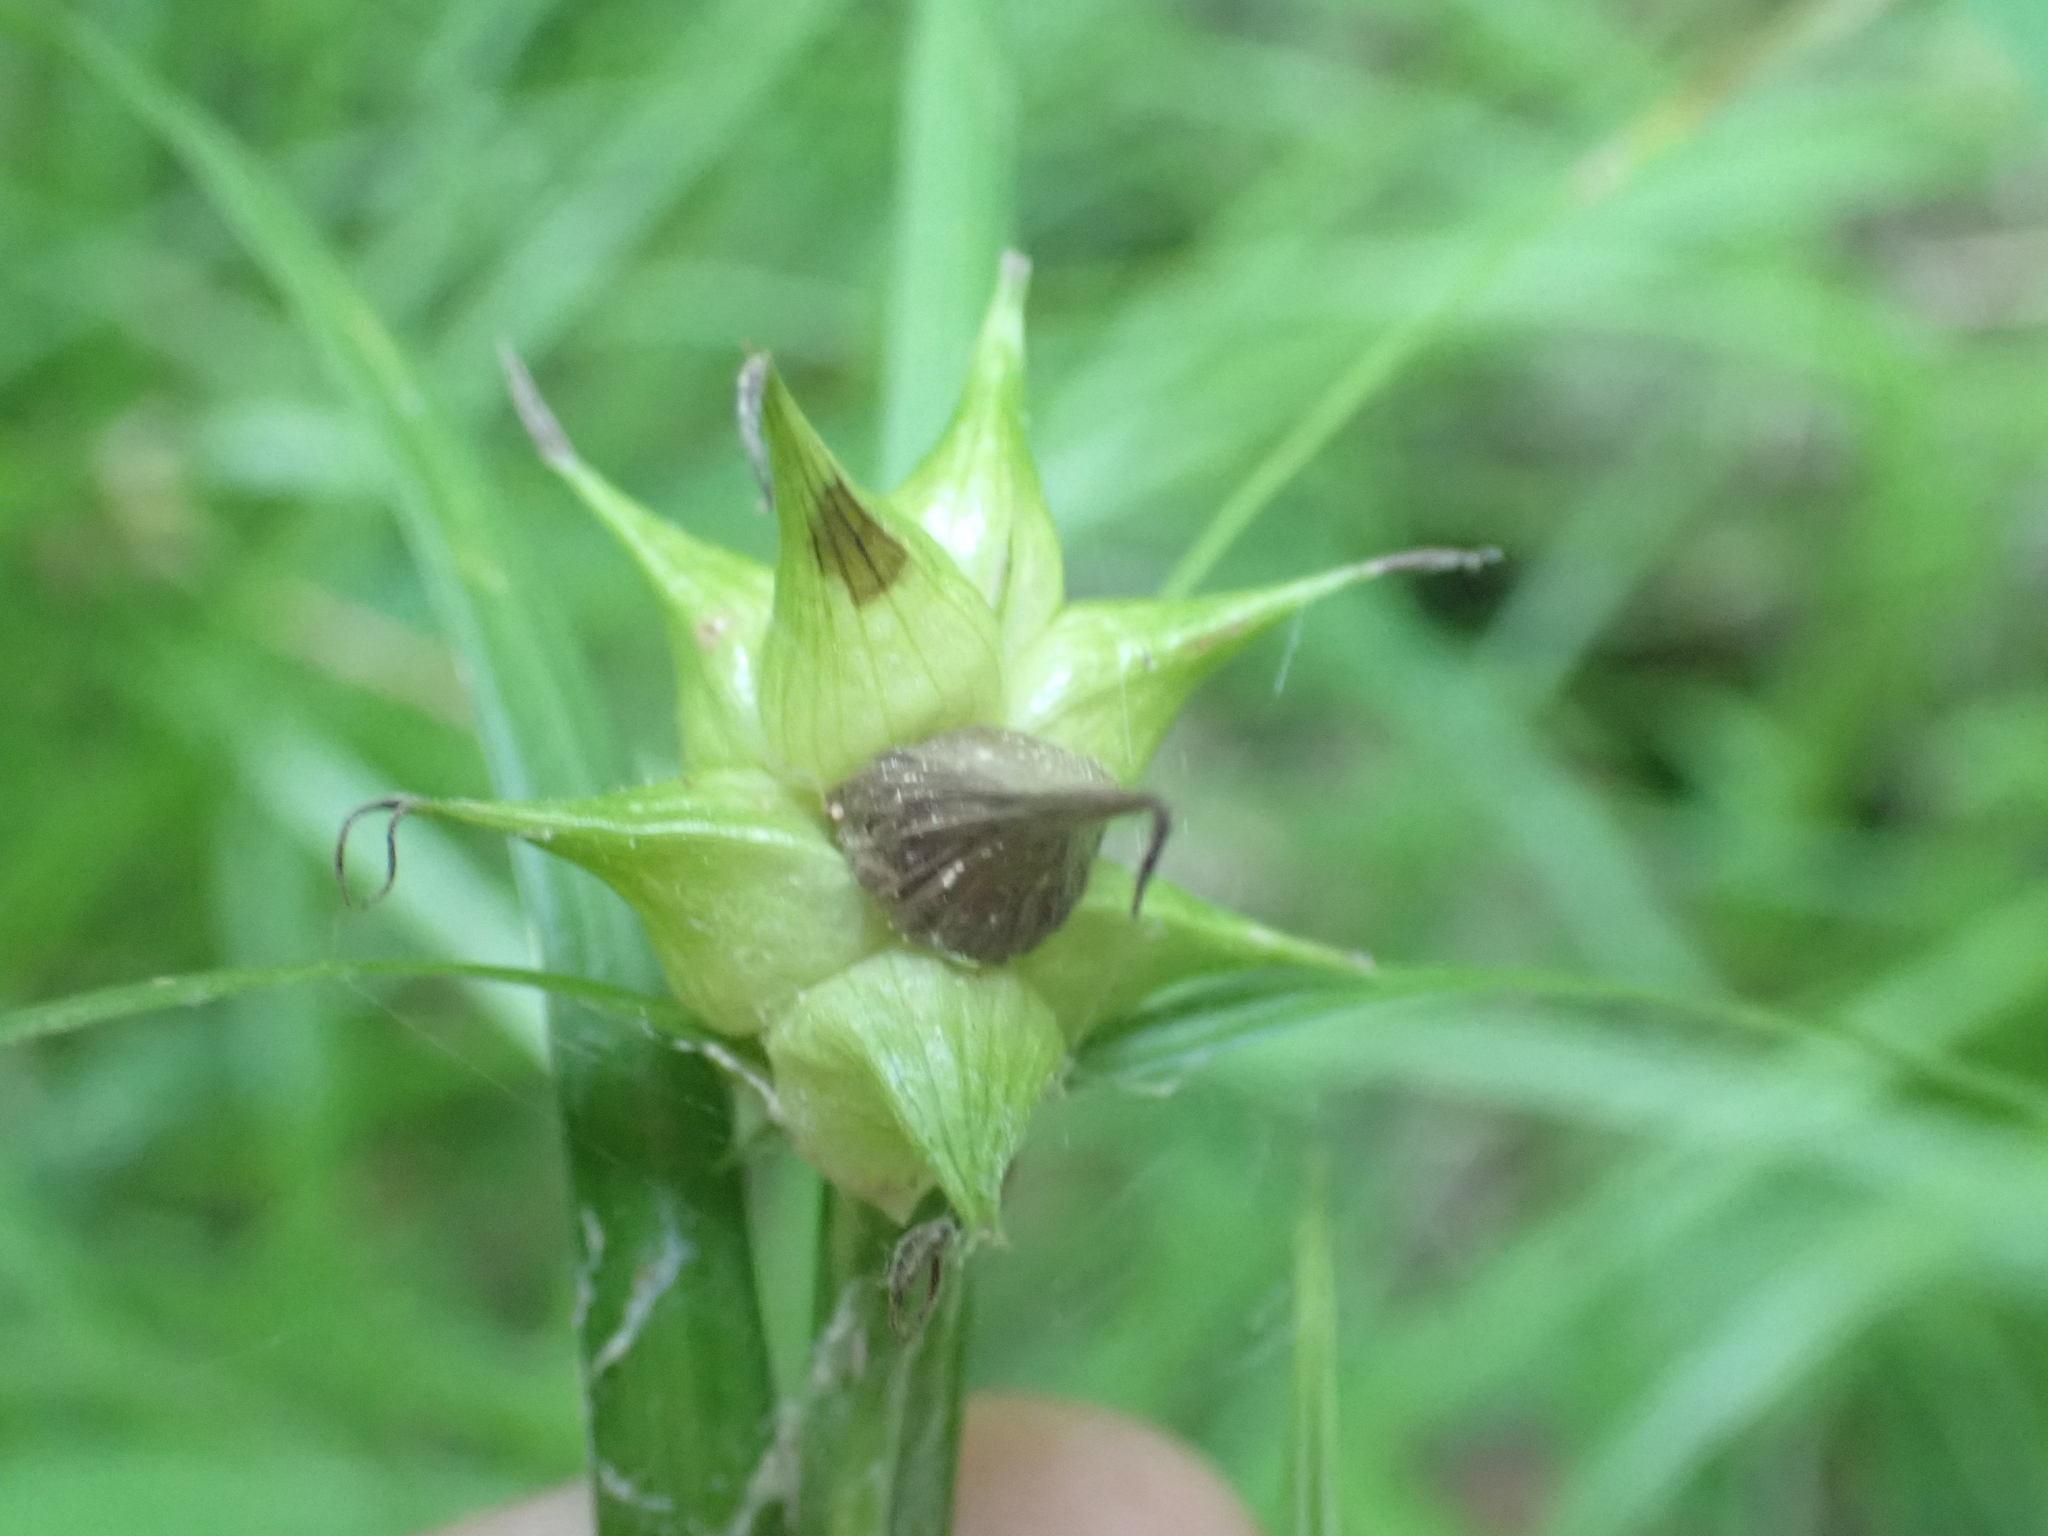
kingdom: Plantae
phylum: Tracheophyta
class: Liliopsida
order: Poales
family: Cyperaceae
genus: Carex
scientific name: Carex intumescens
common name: Greater bladder sedge
